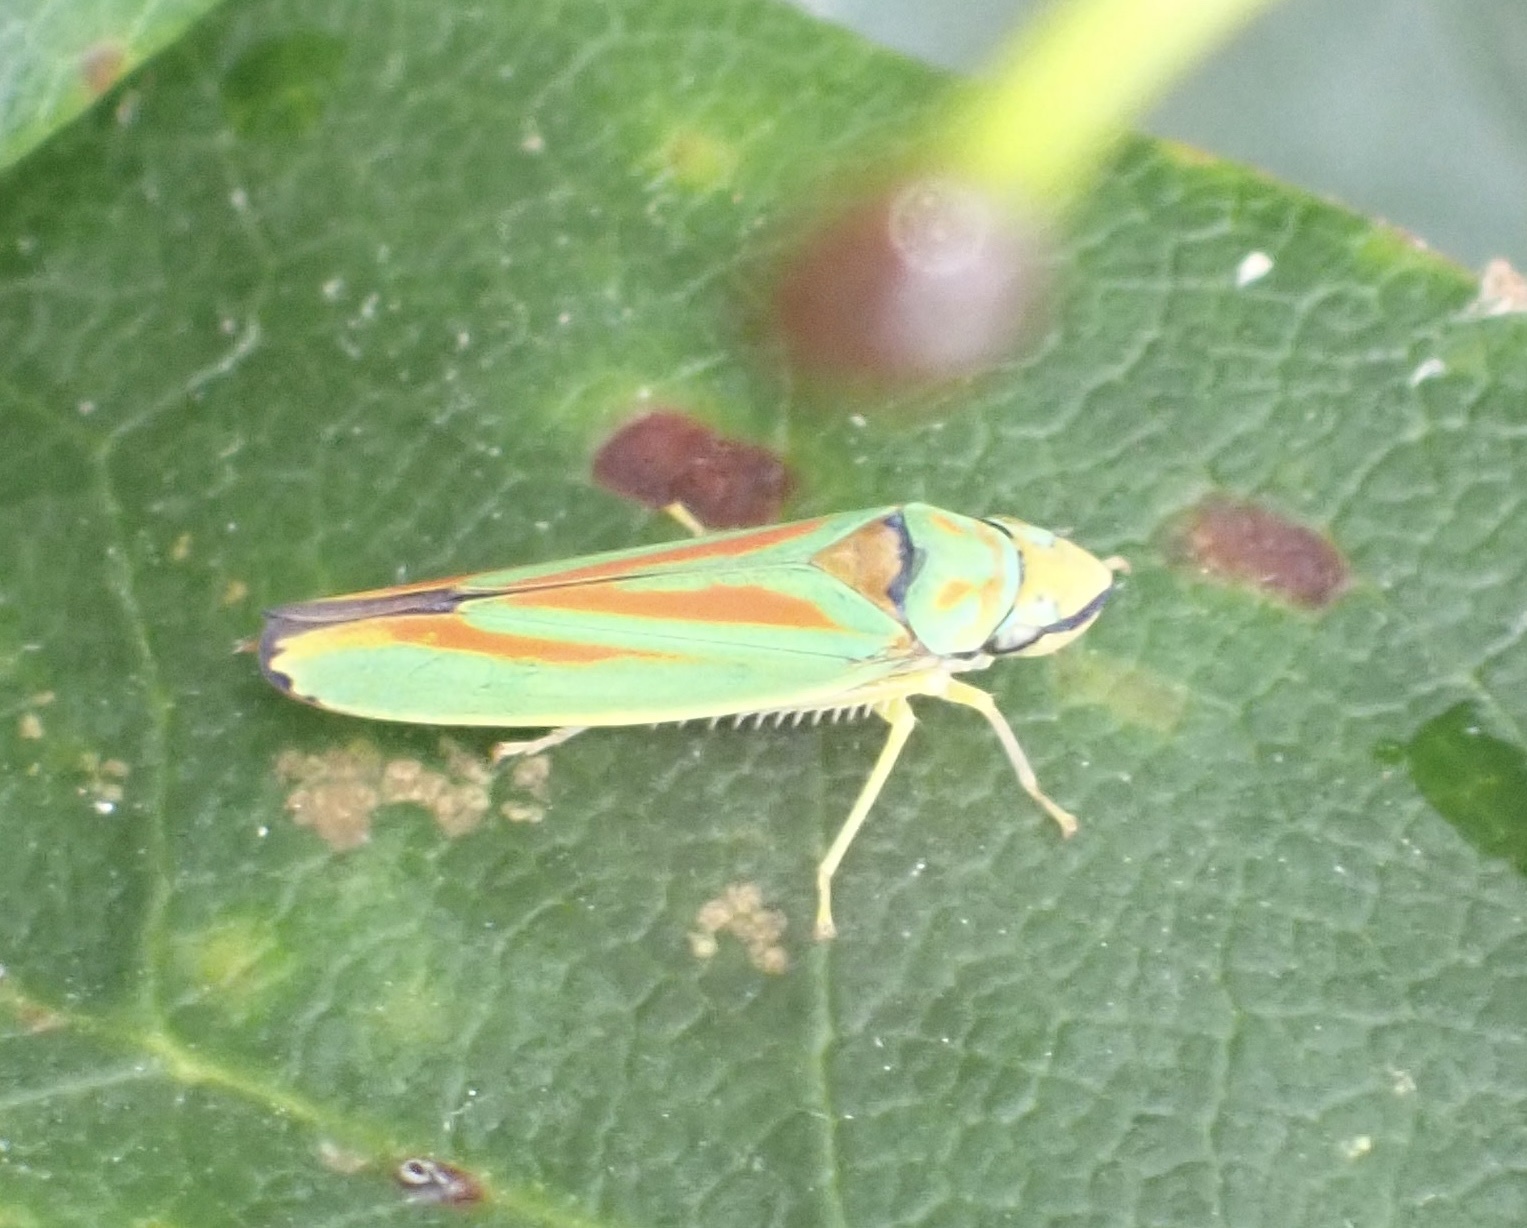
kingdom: Animalia
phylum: Arthropoda
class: Insecta
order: Hemiptera
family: Cicadellidae
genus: Graphocephala
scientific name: Graphocephala fennahi
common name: Rhododendron leafhopper
